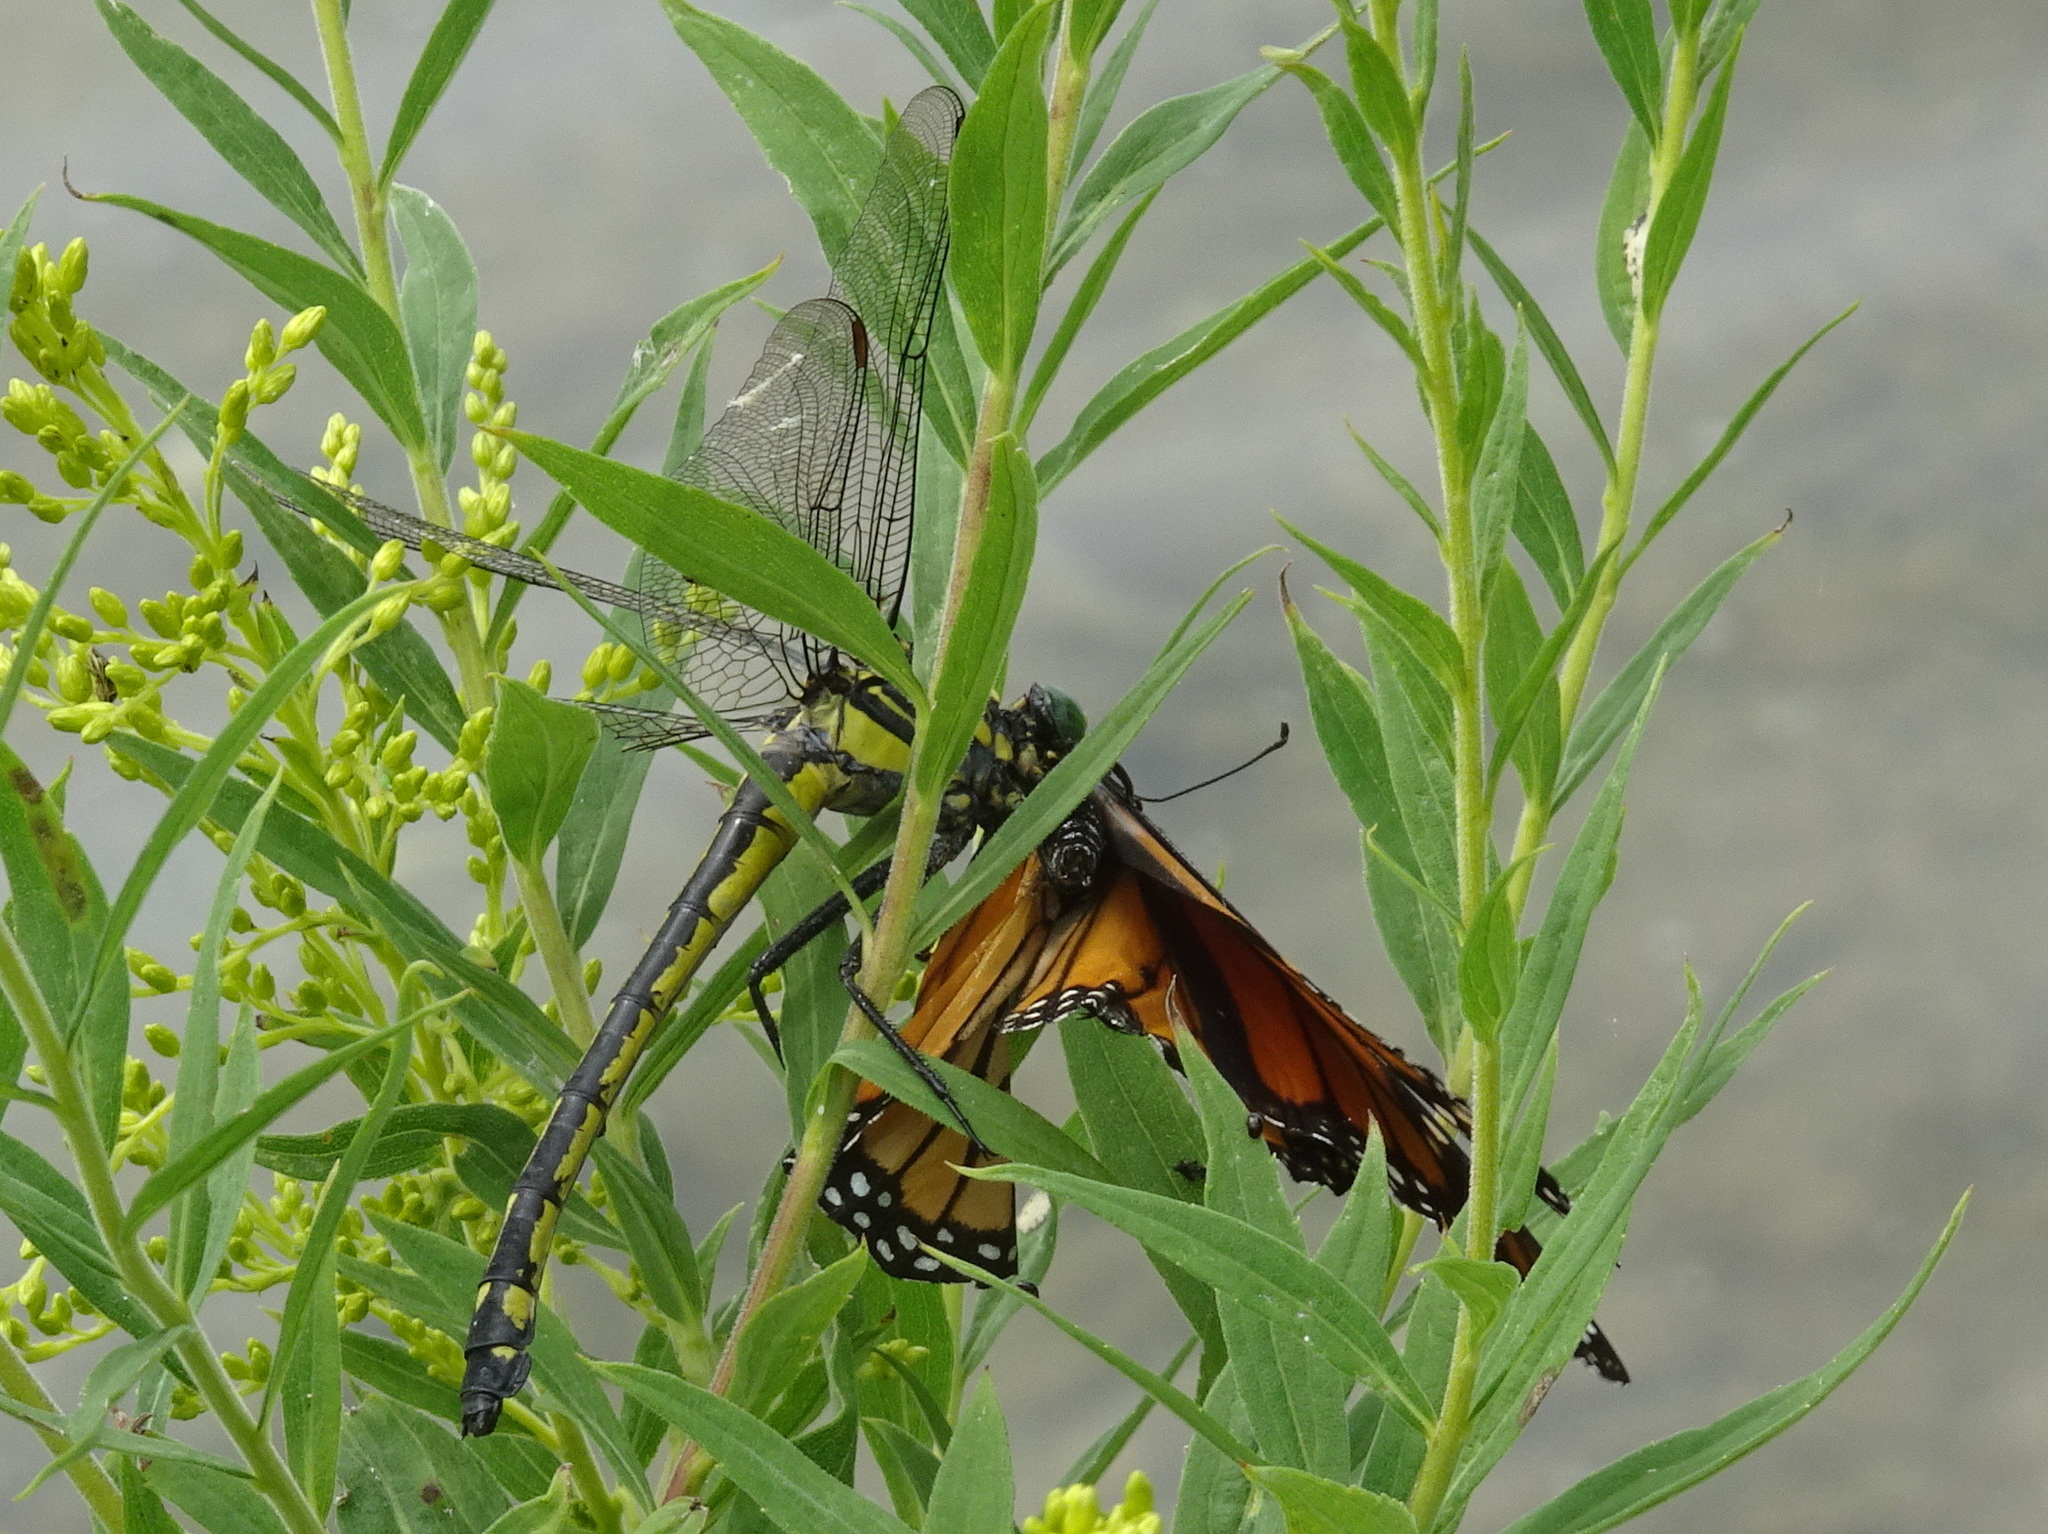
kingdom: Animalia
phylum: Arthropoda
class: Insecta
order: Odonata
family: Gomphidae
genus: Hagenius
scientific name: Hagenius brevistylus
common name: Dragonhunter
